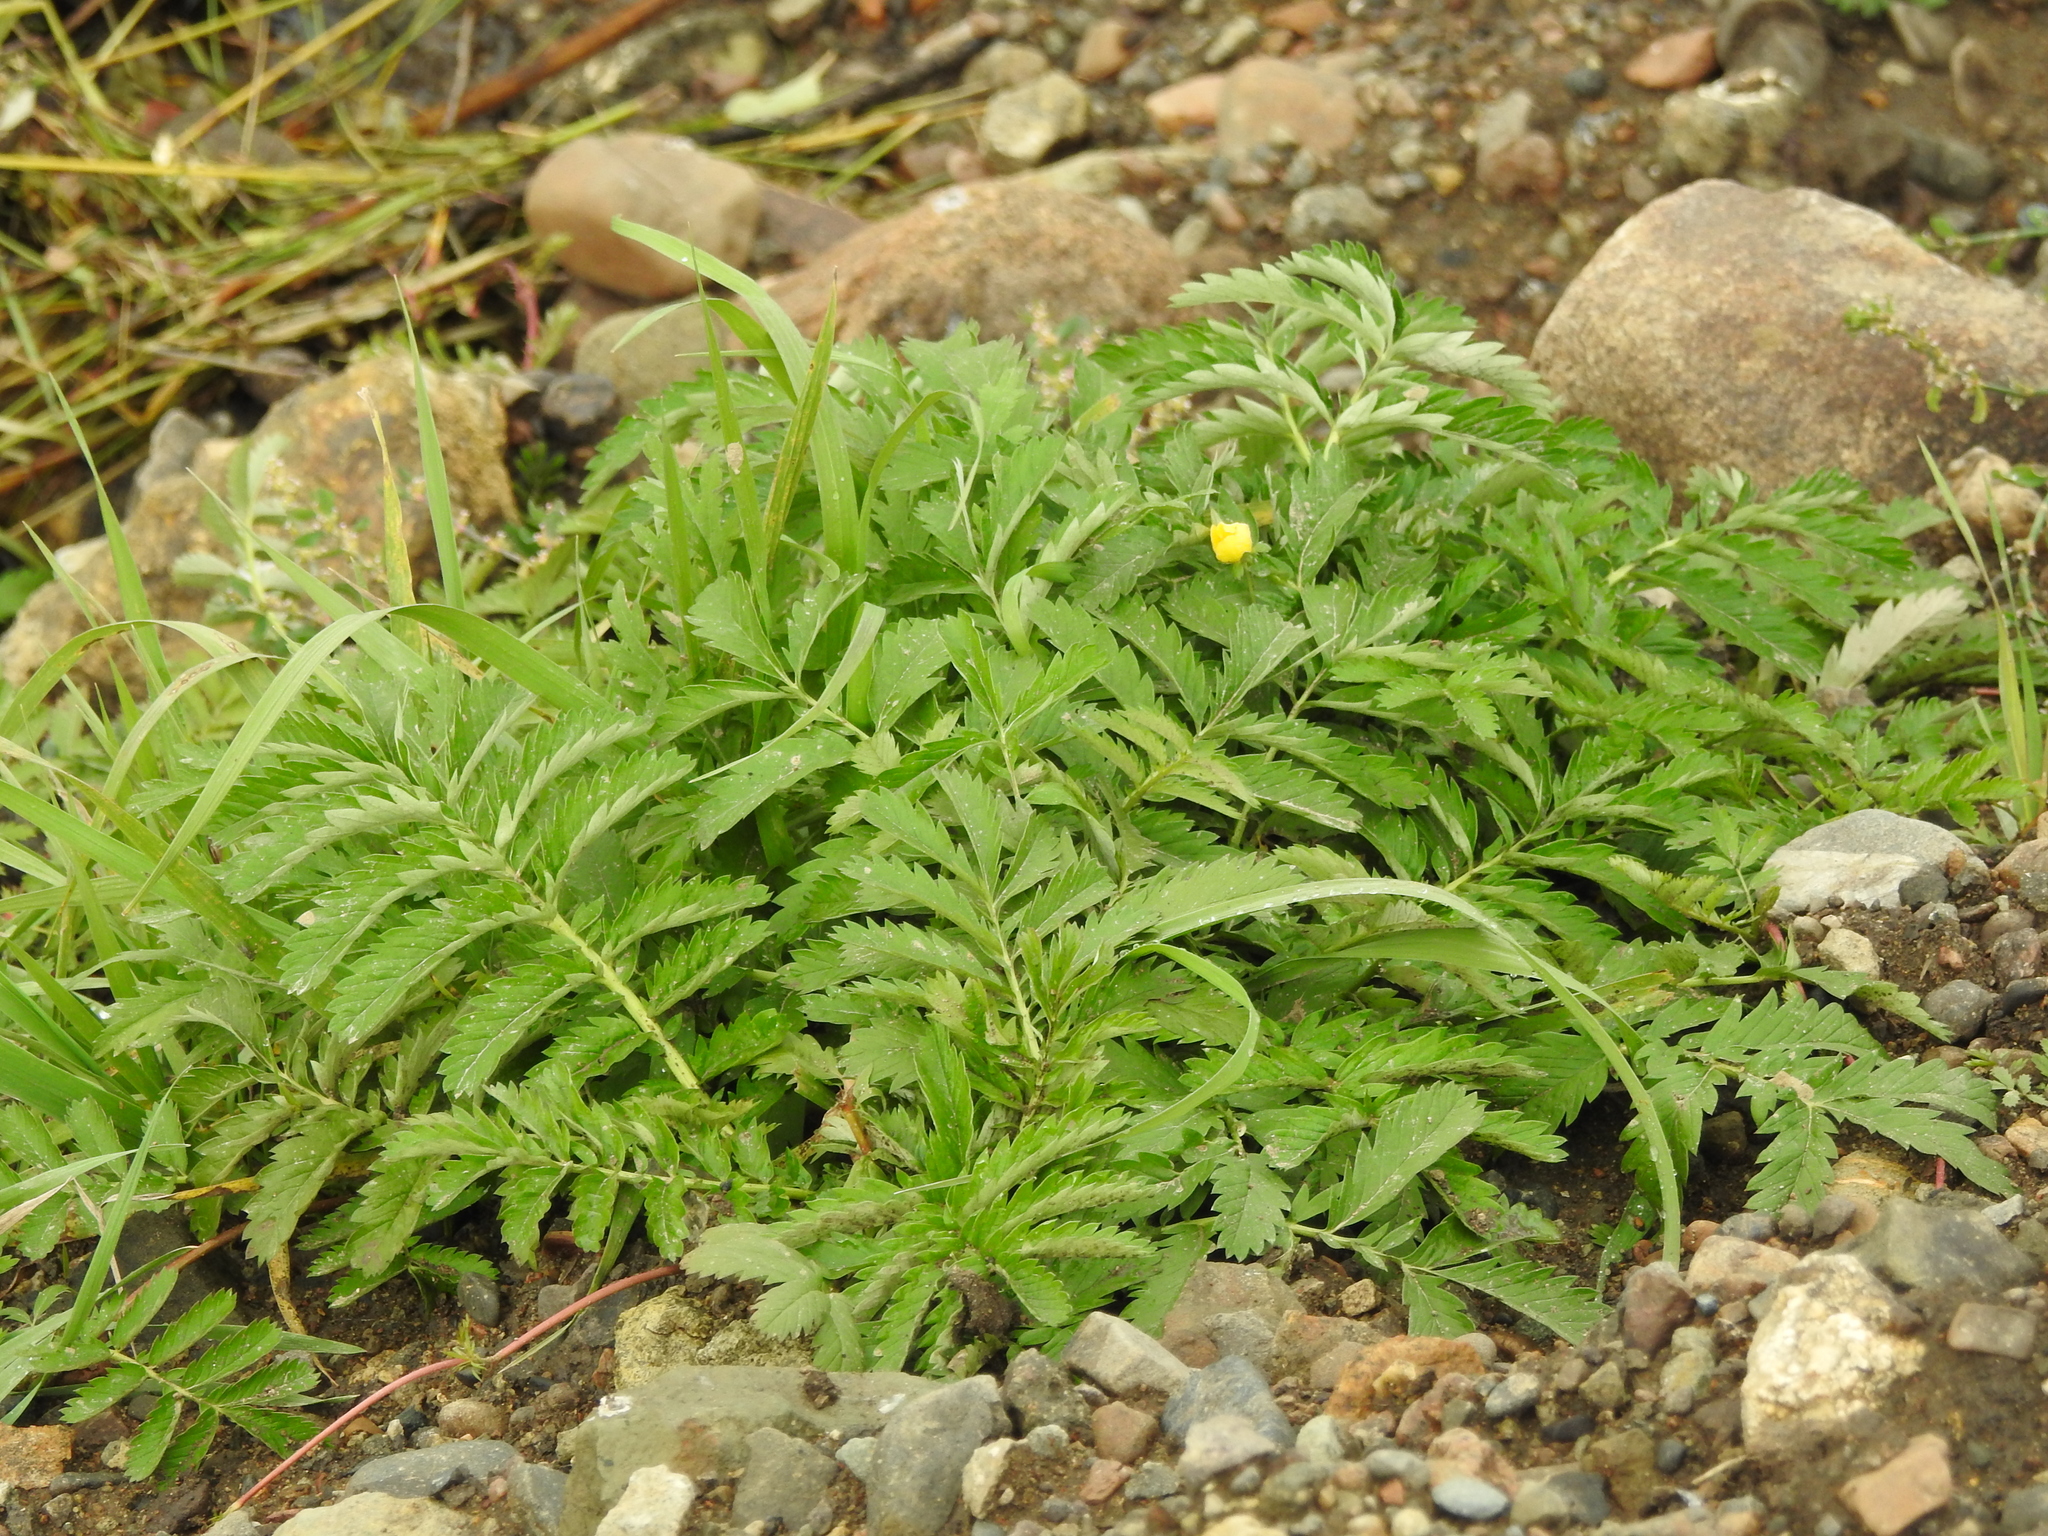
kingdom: Plantae
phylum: Tracheophyta
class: Magnoliopsida
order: Rosales
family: Rosaceae
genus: Argentina
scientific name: Argentina anserina
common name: Common silverweed
